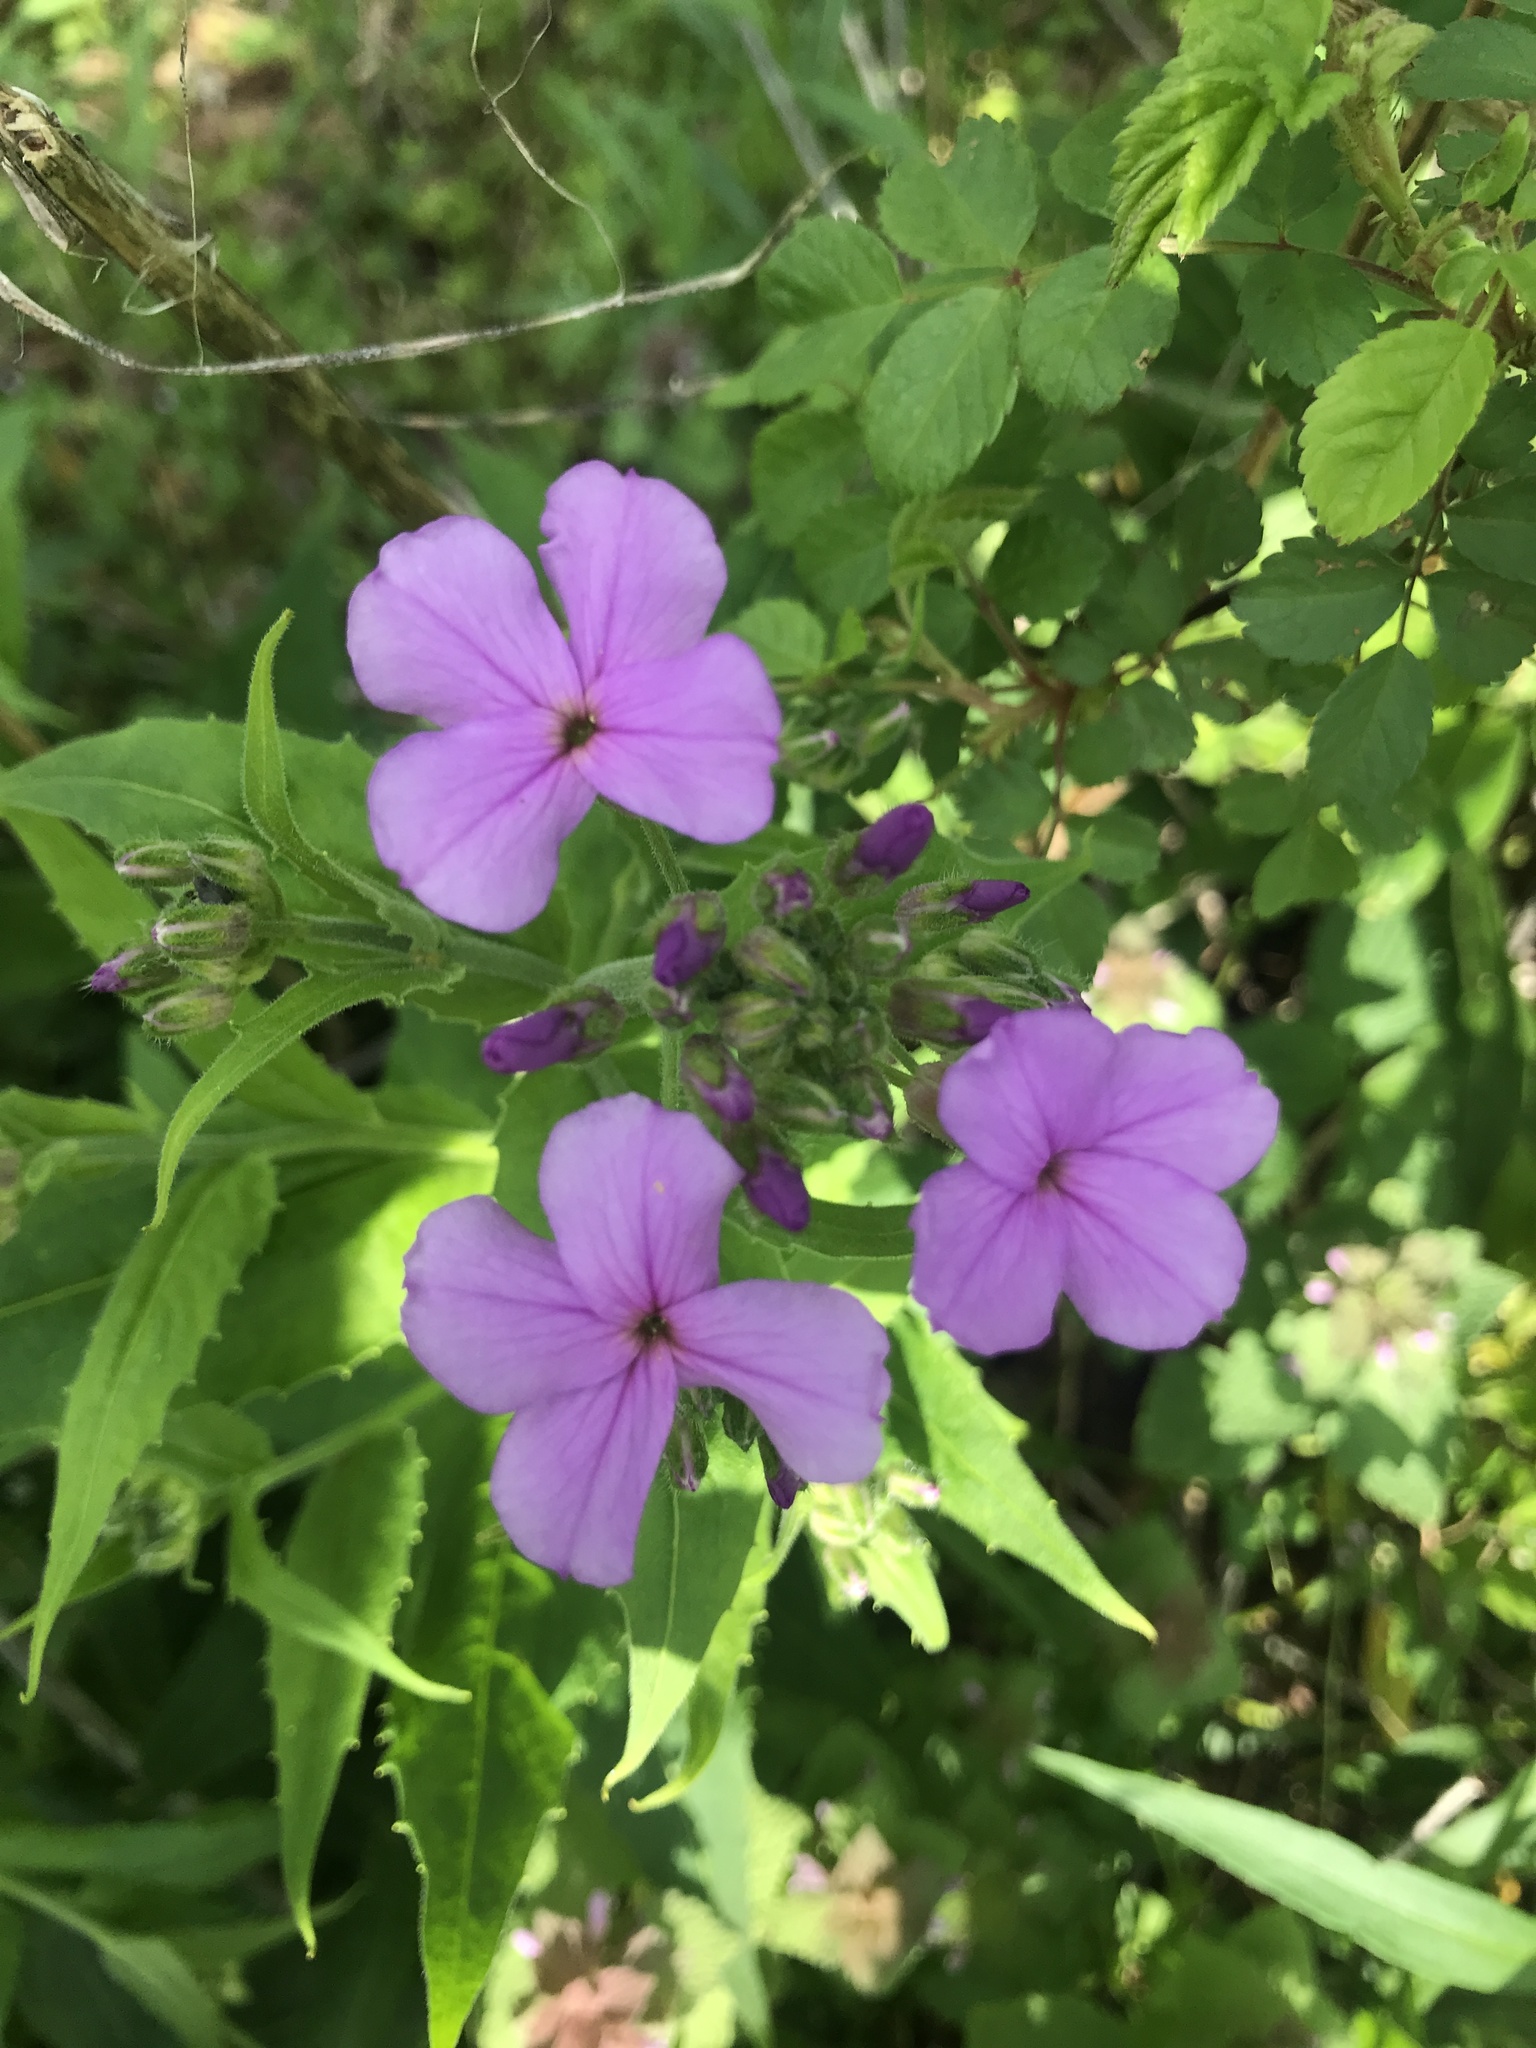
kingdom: Plantae
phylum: Tracheophyta
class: Magnoliopsida
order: Brassicales
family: Brassicaceae
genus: Hesperis
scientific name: Hesperis matronalis
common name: Dame's-violet
